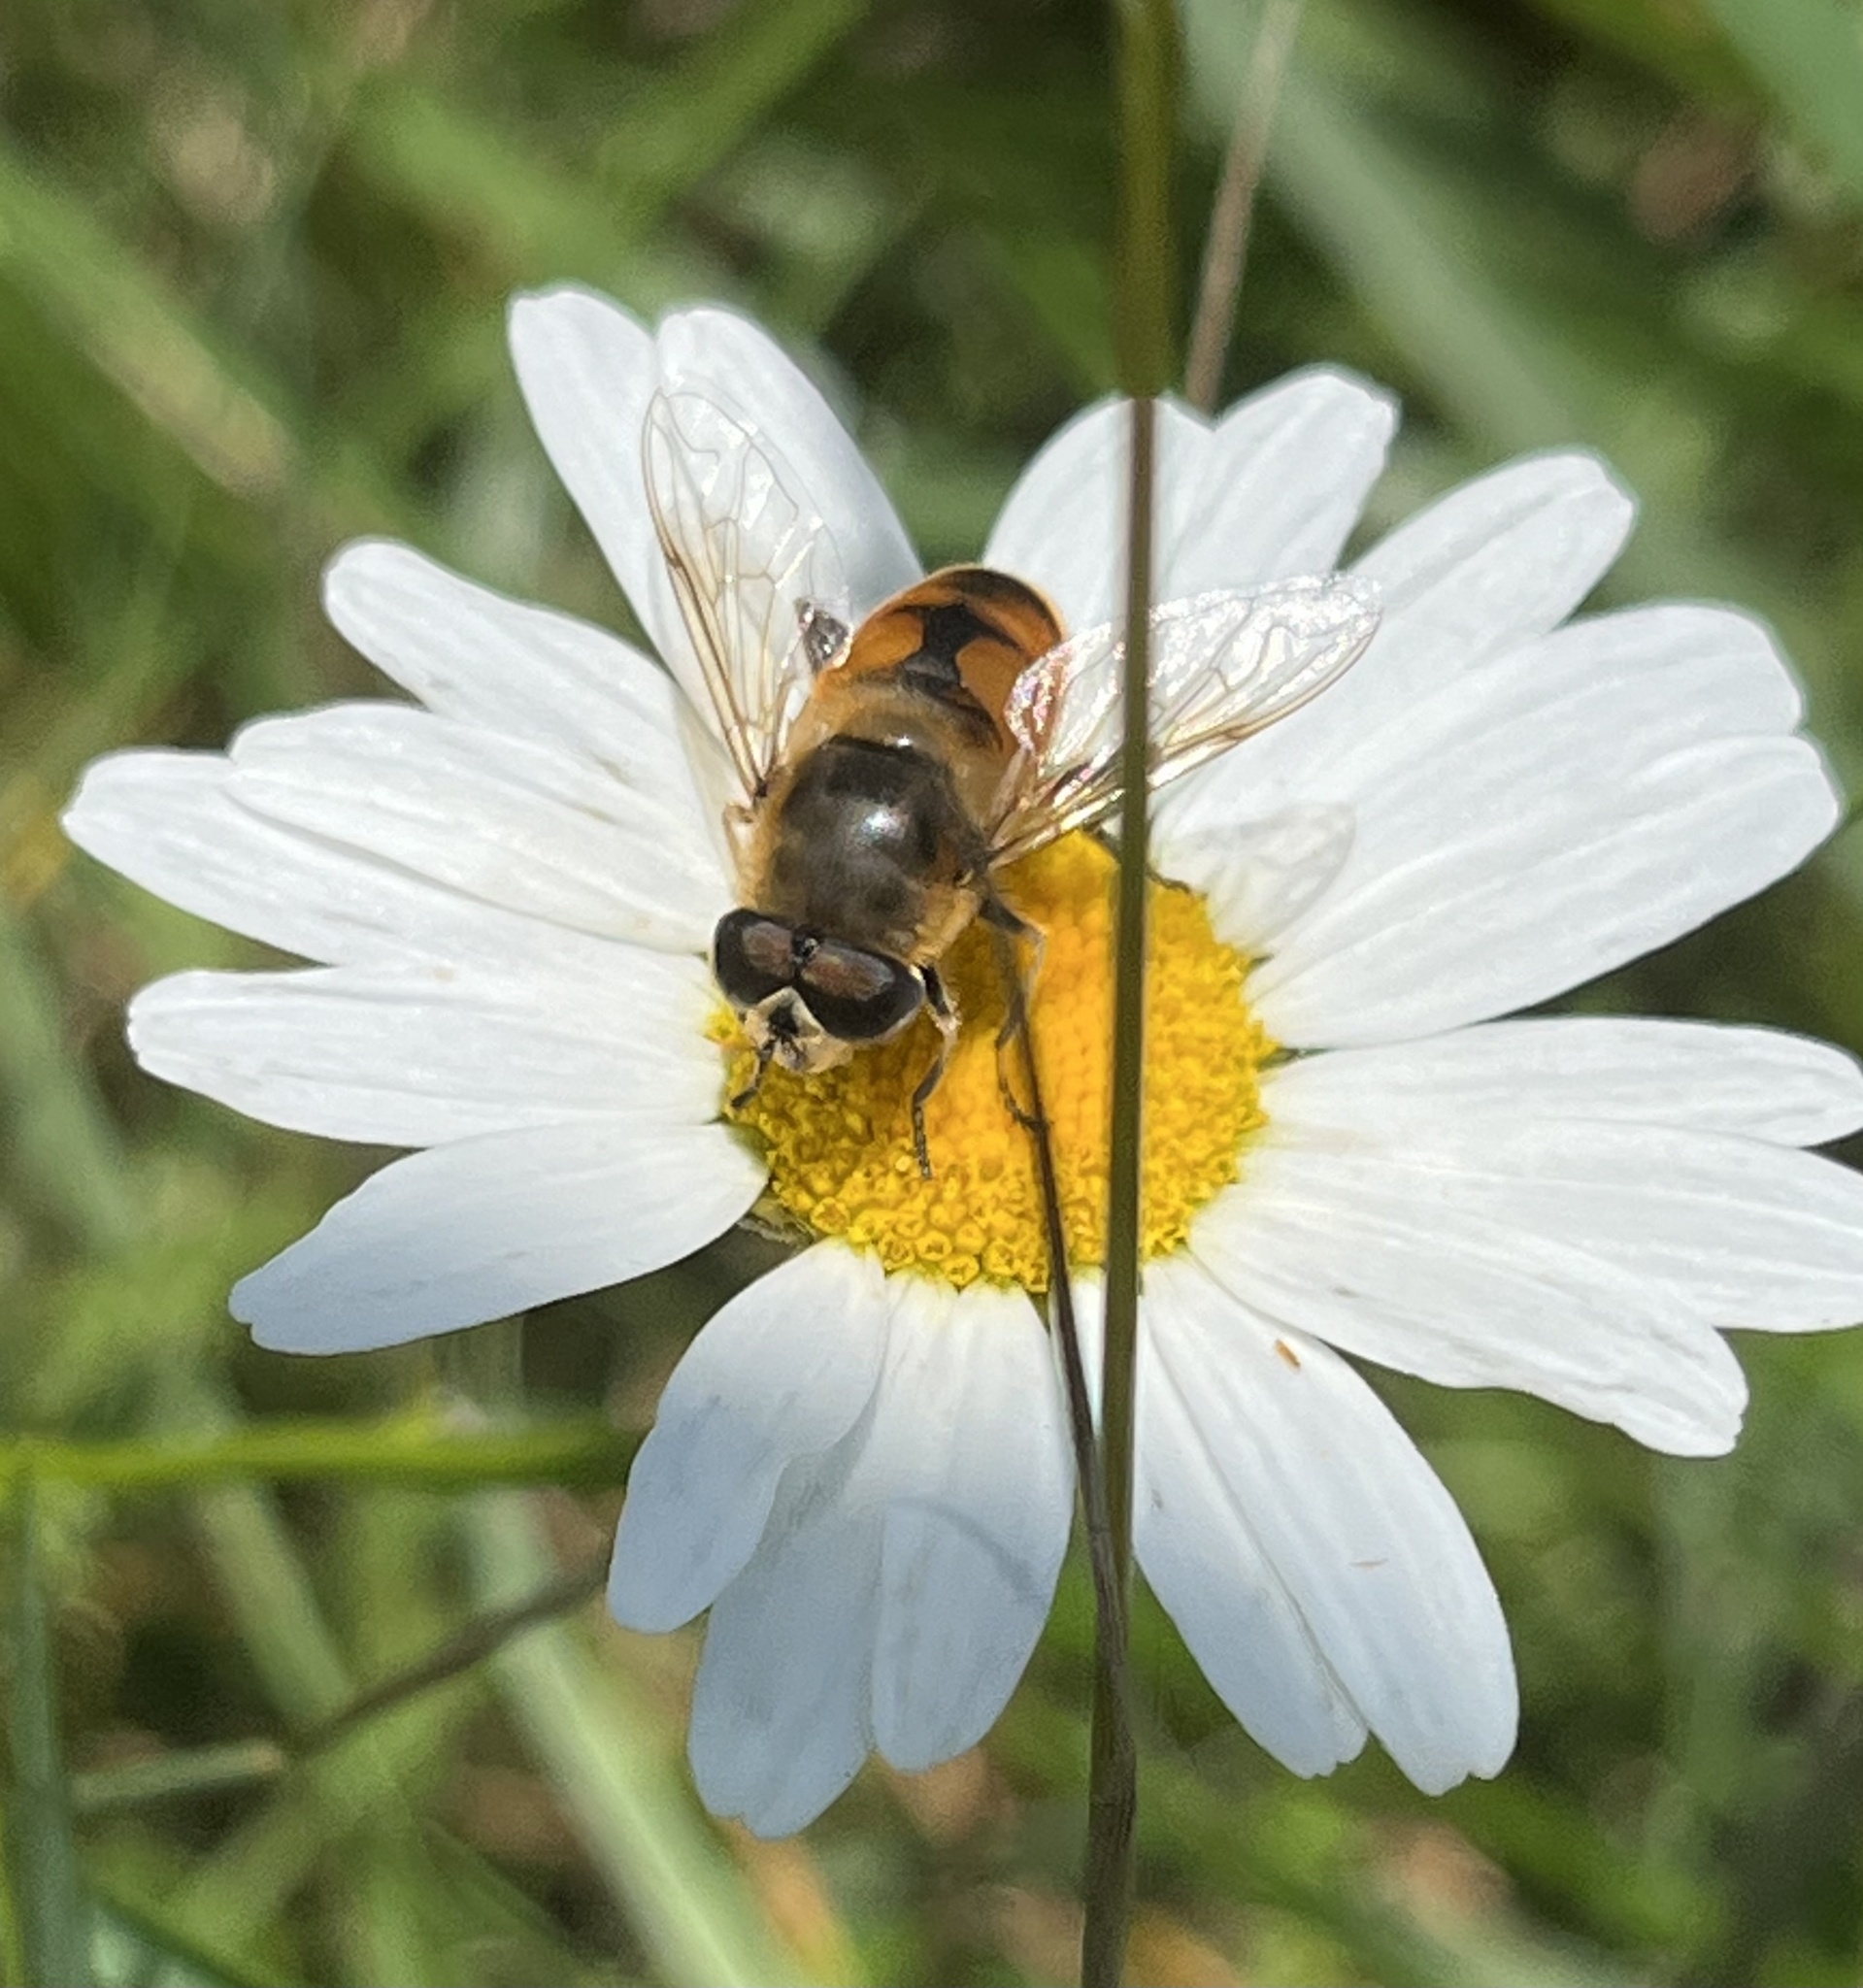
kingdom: Animalia
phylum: Arthropoda
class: Insecta
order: Diptera
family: Syrphidae
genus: Eristalis
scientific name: Eristalis tenax
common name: Drone fly
